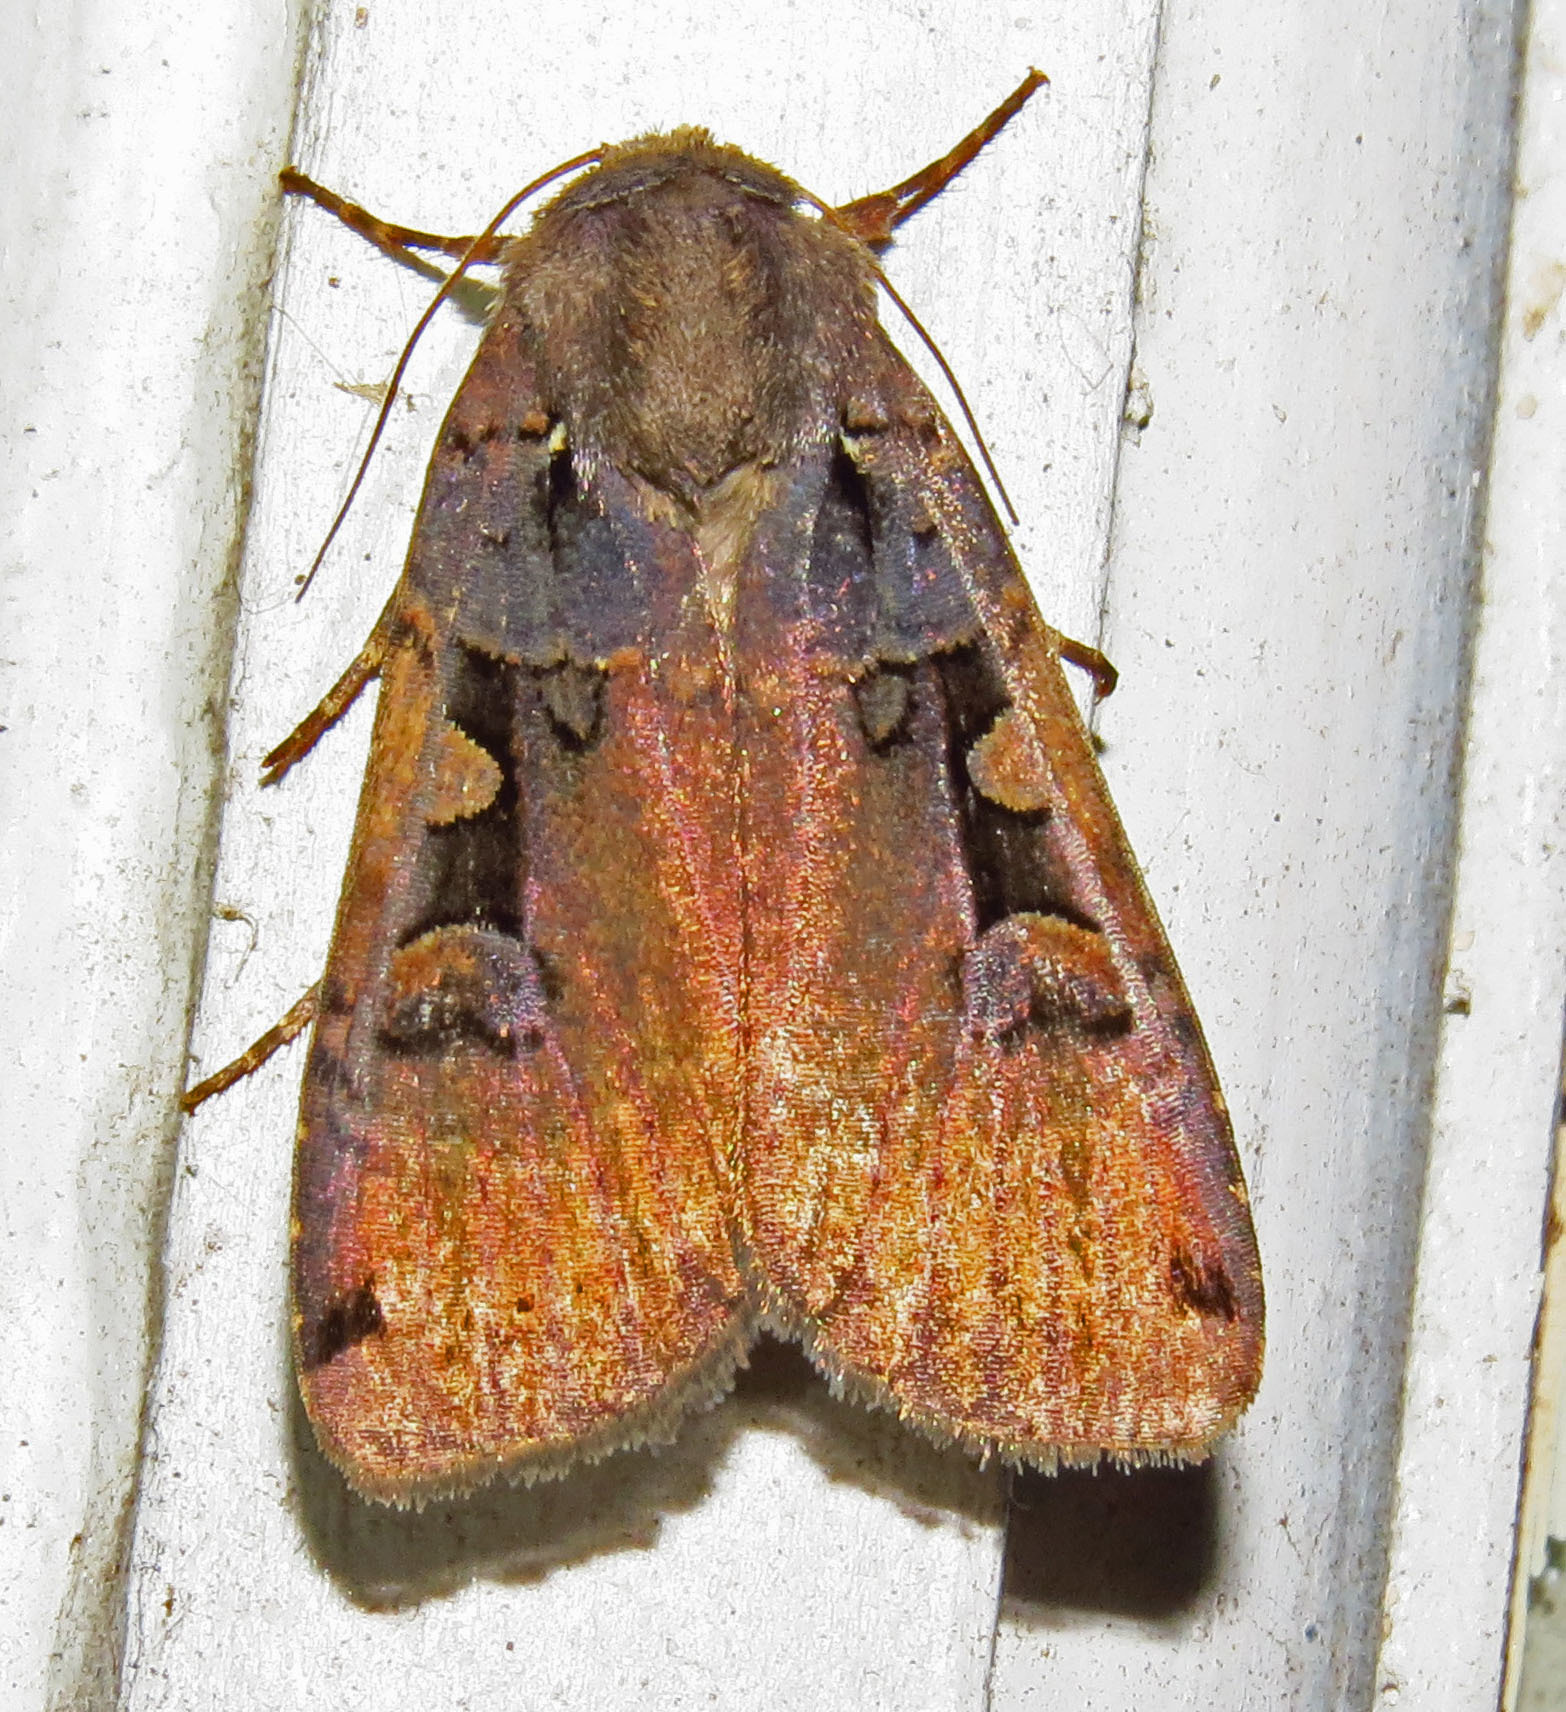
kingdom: Animalia
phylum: Arthropoda
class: Insecta
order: Lepidoptera
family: Noctuidae
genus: Xestia
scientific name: Xestia dolosa
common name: Cutworm moth
